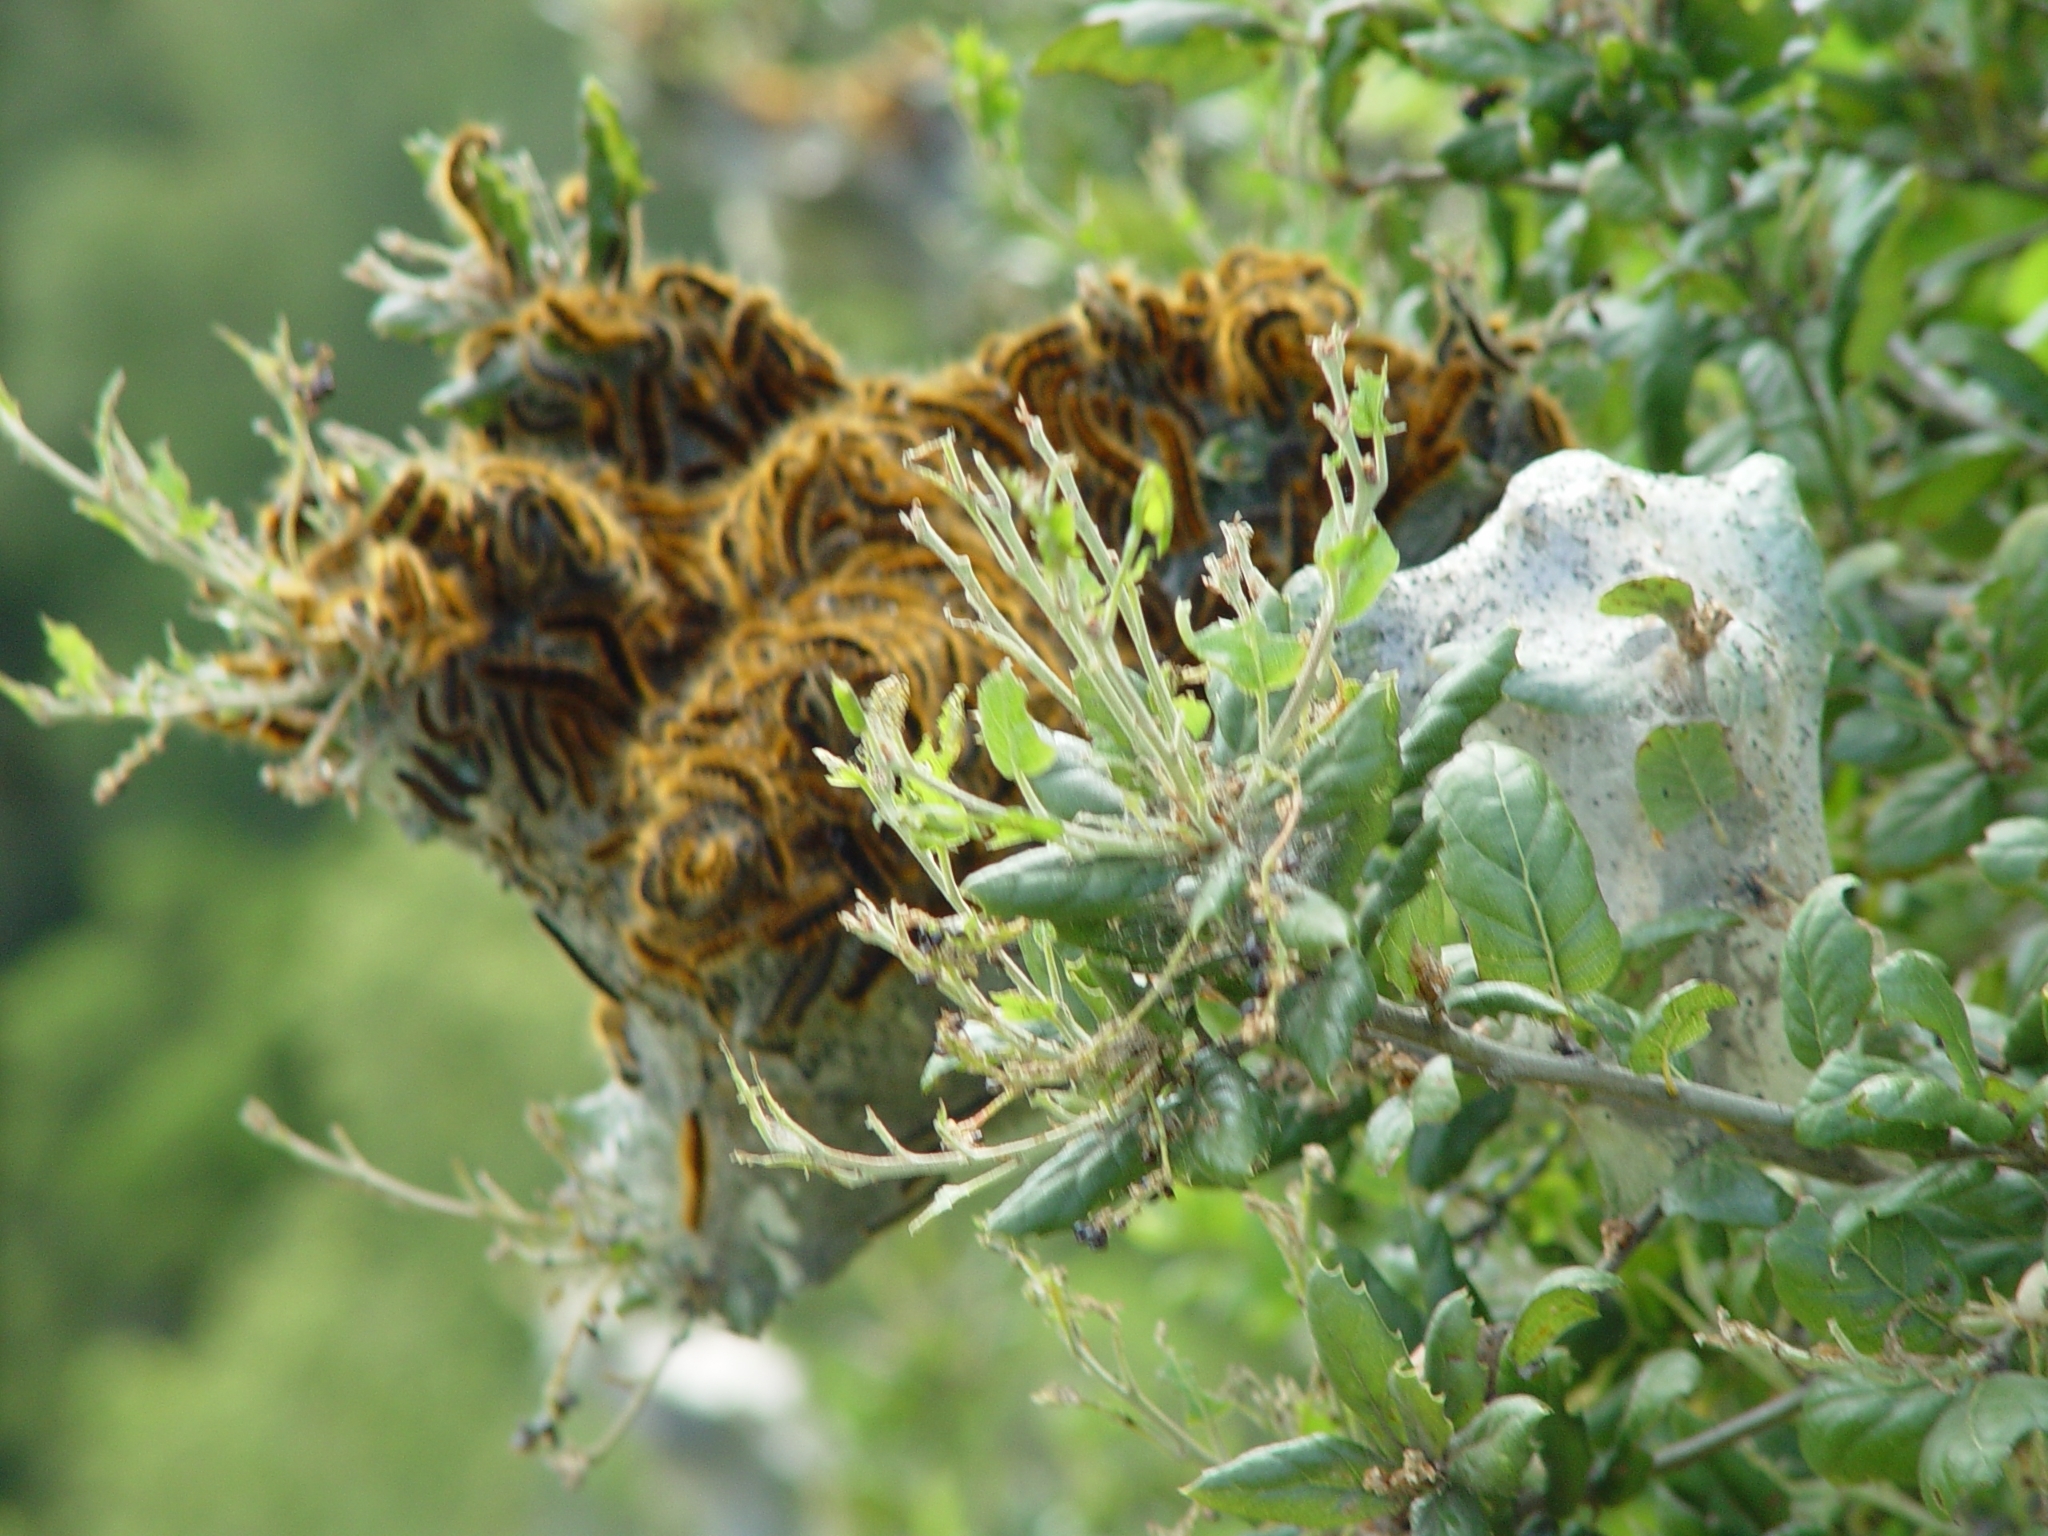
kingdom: Animalia
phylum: Arthropoda
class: Insecta
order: Lepidoptera
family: Lasiocampidae
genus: Malacosoma
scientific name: Malacosoma californica
